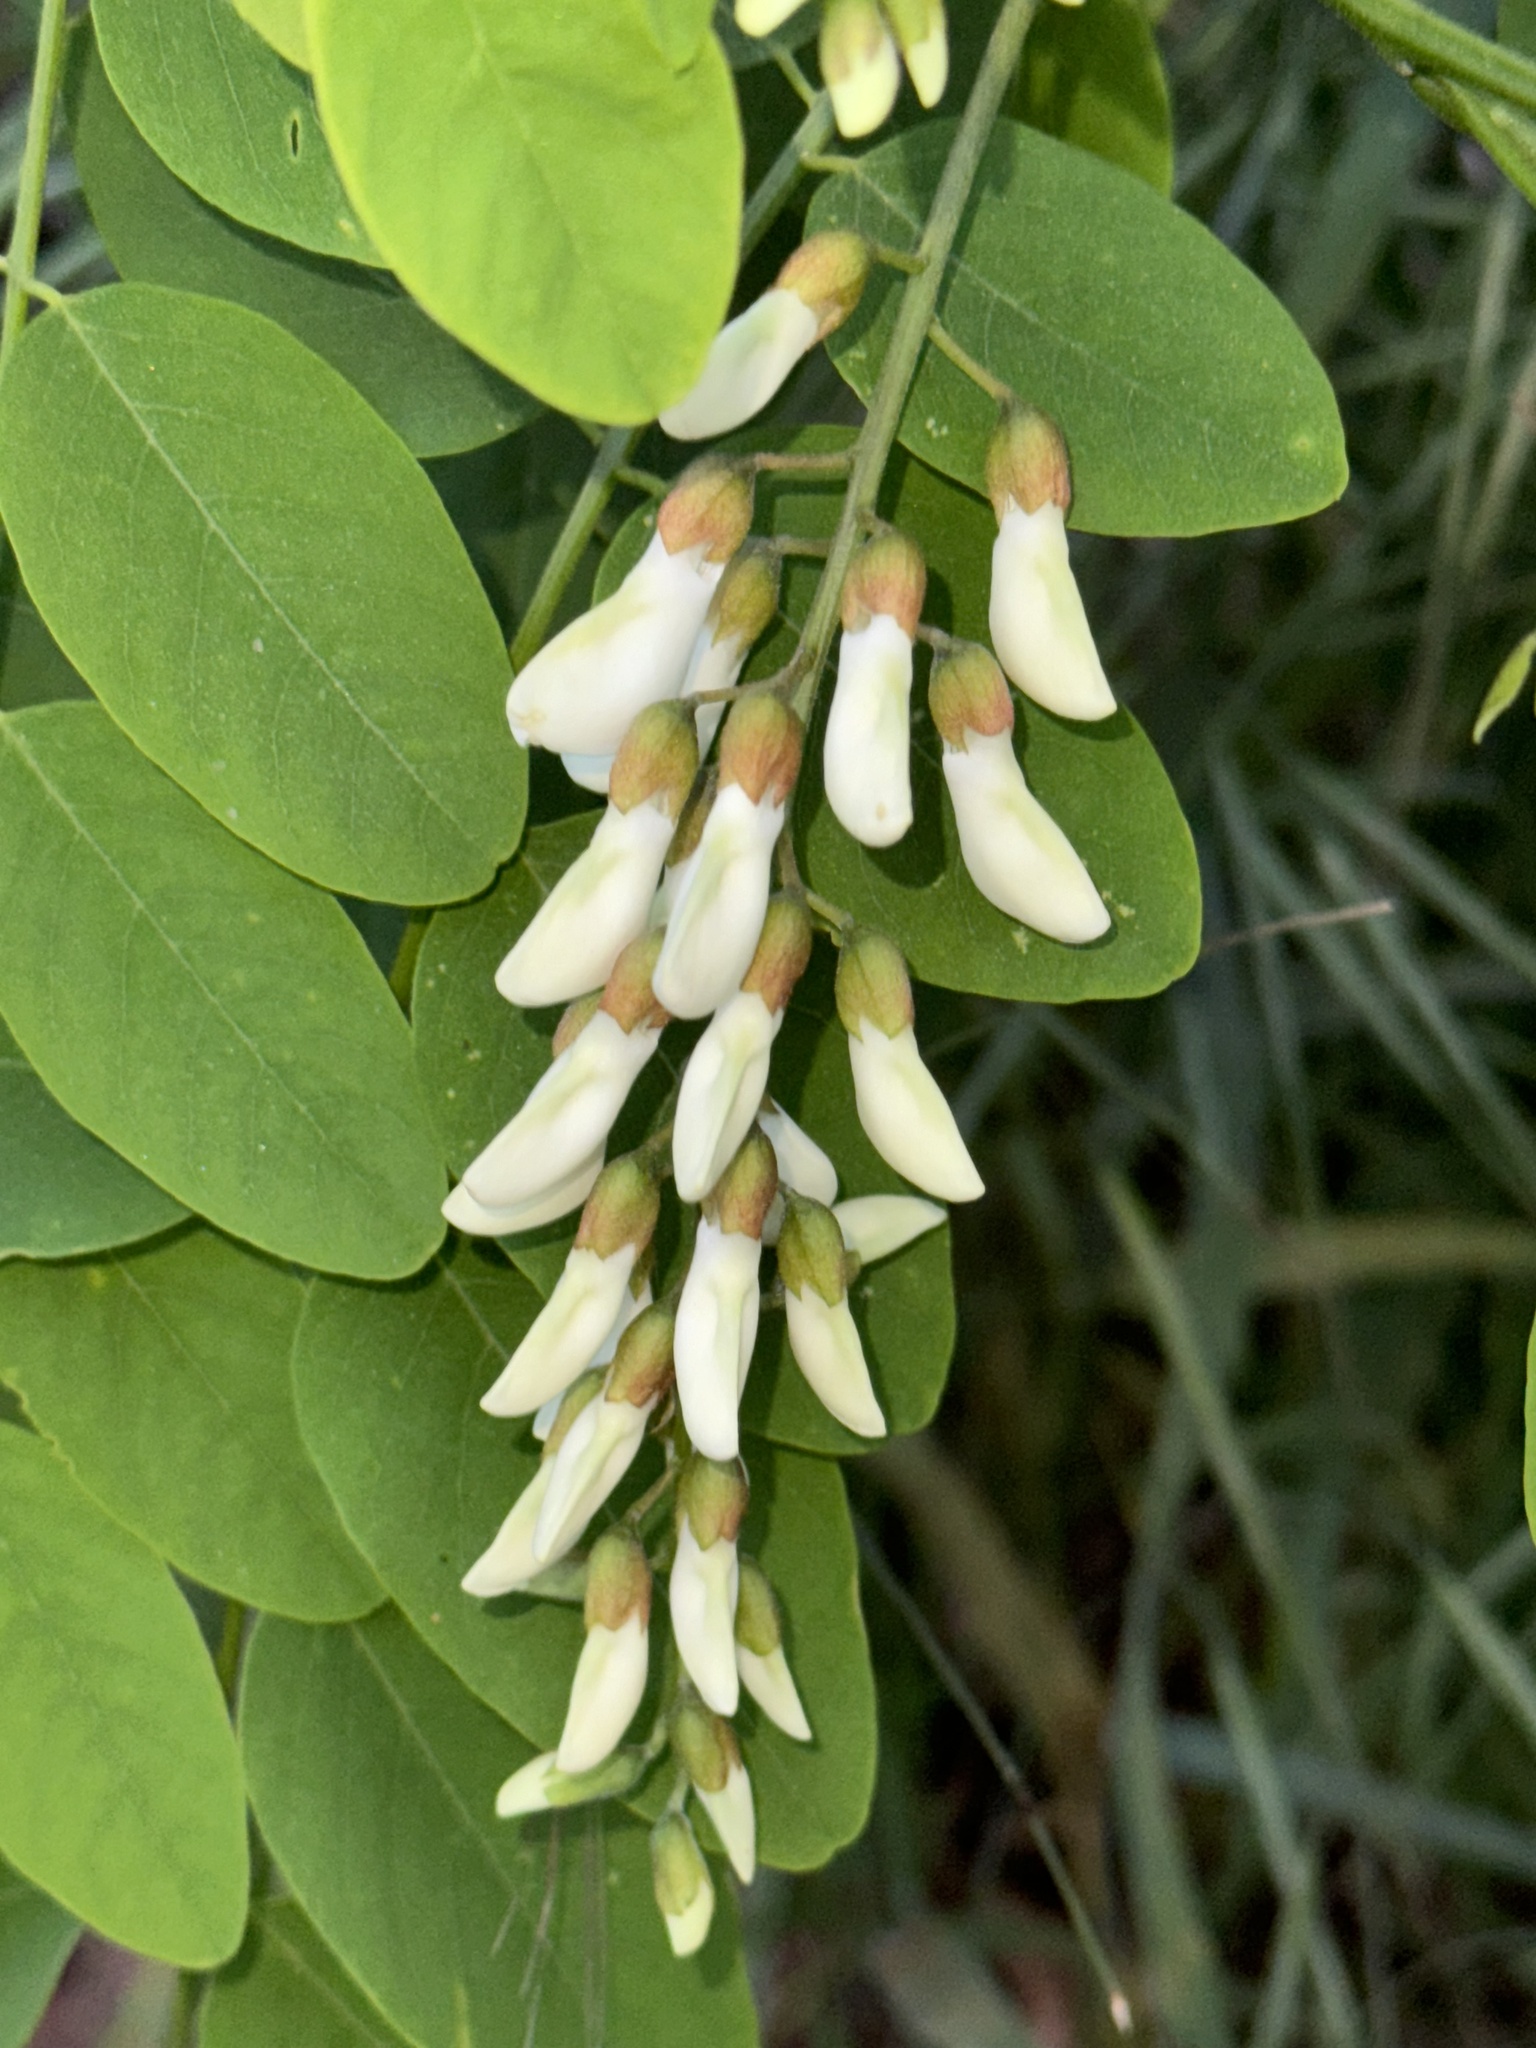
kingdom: Plantae
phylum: Tracheophyta
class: Magnoliopsida
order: Fabales
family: Fabaceae
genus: Robinia
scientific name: Robinia pseudoacacia
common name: Black locust
